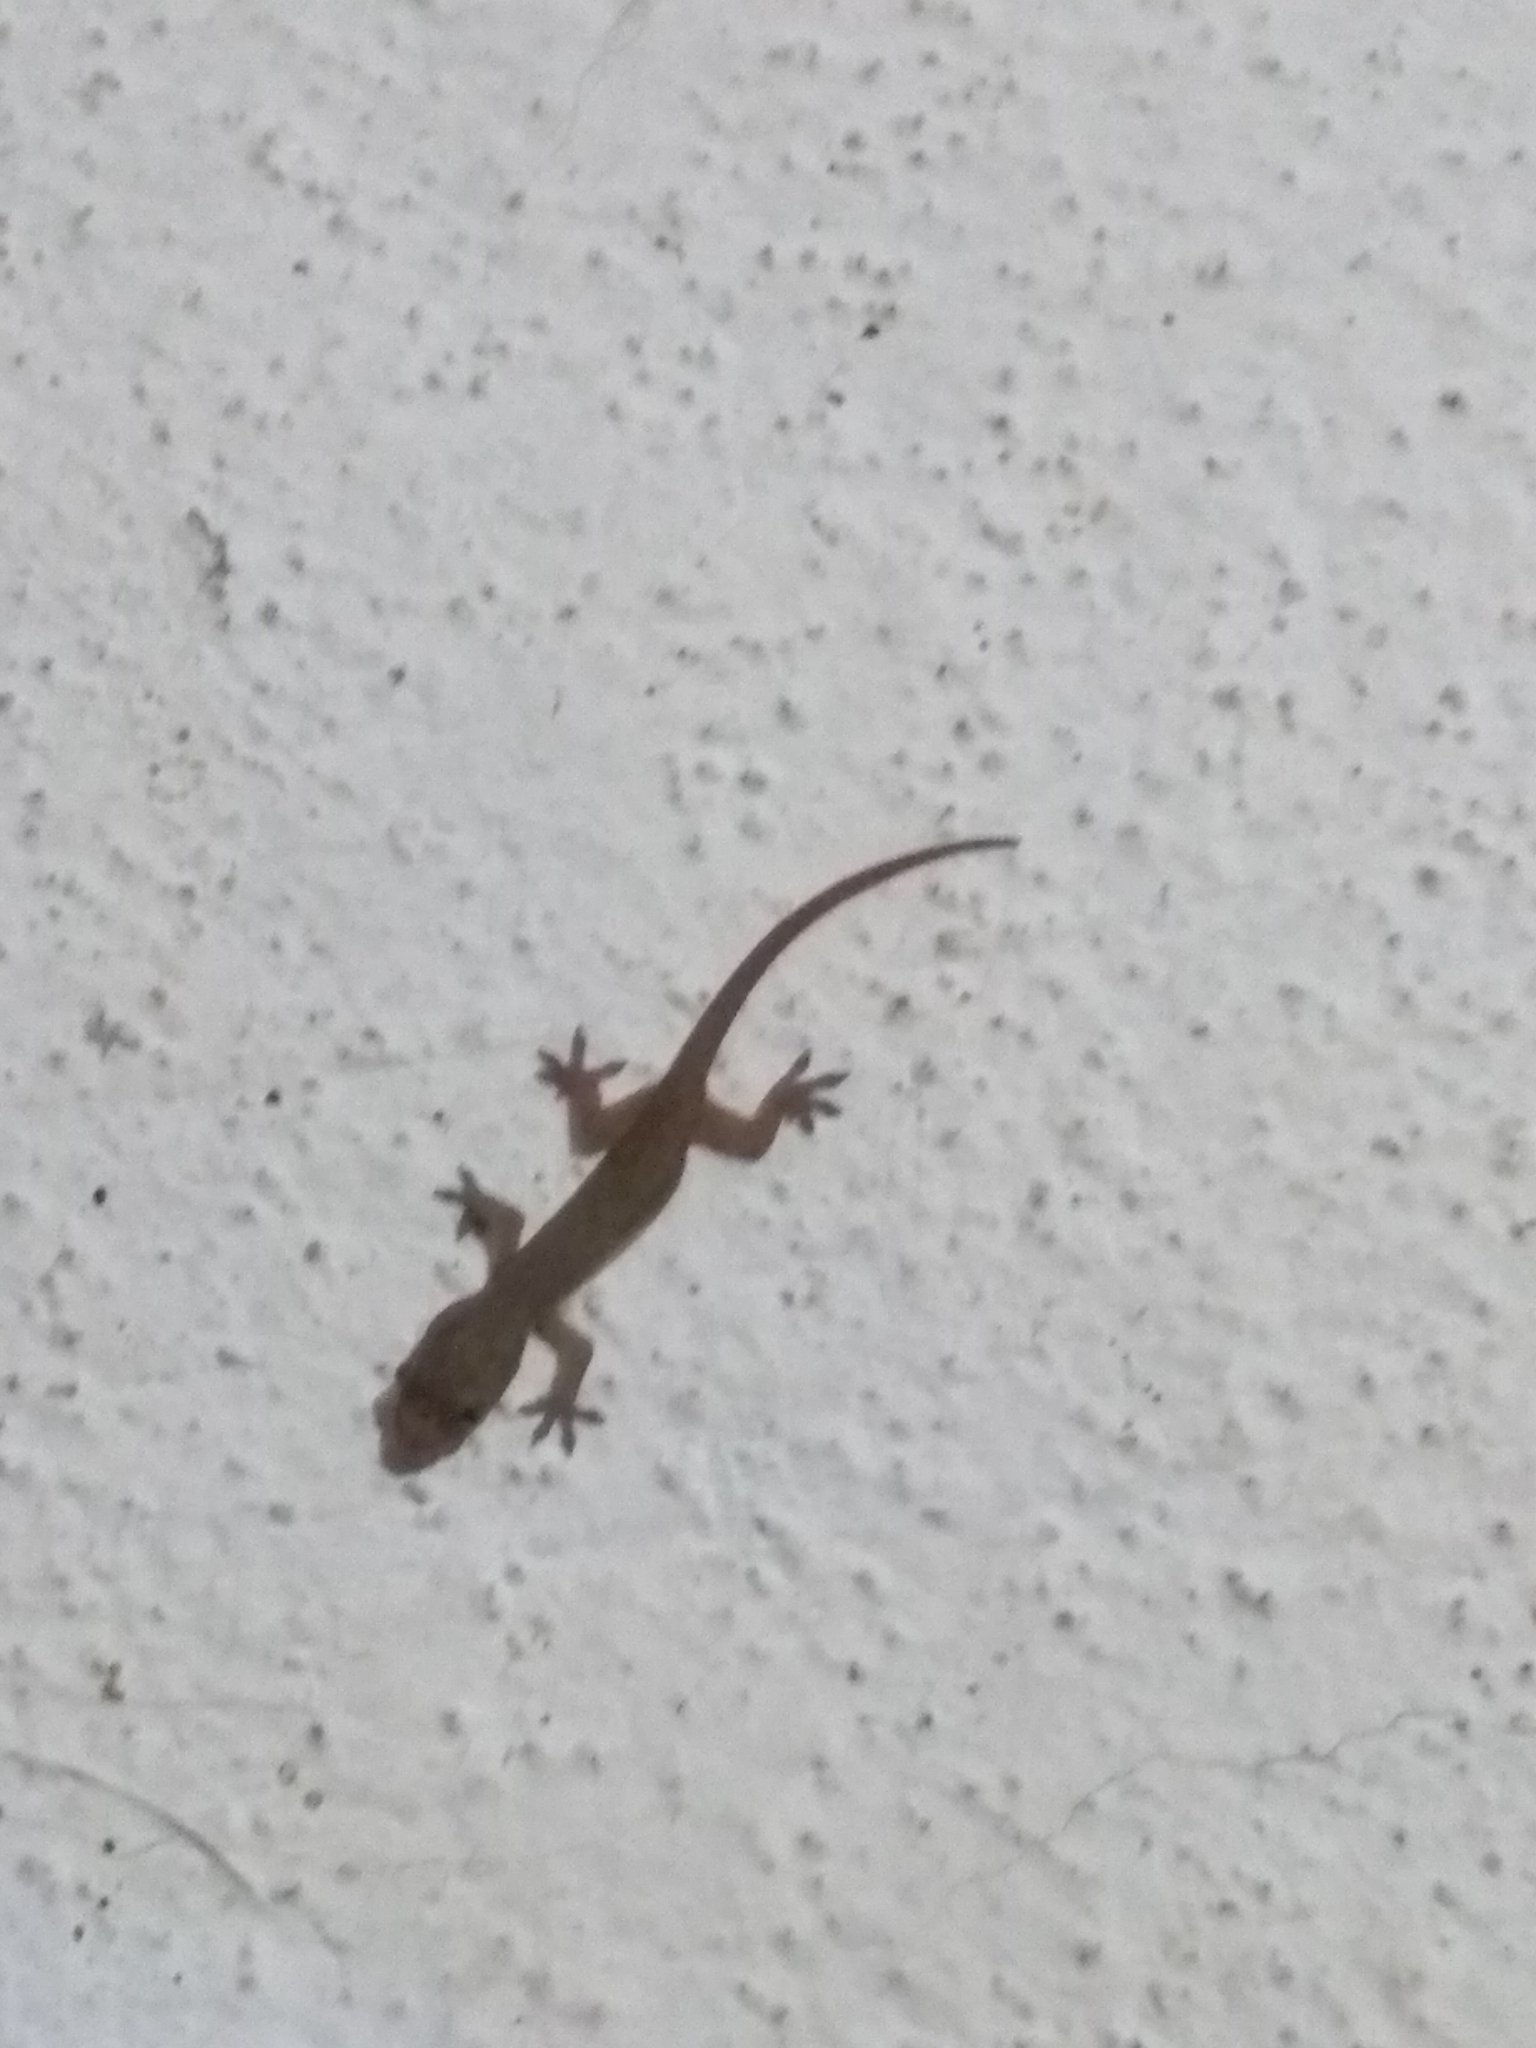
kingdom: Animalia
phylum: Chordata
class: Squamata
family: Gekkonidae
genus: Hemidactylus
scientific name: Hemidactylus frenatus
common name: Common house gecko
